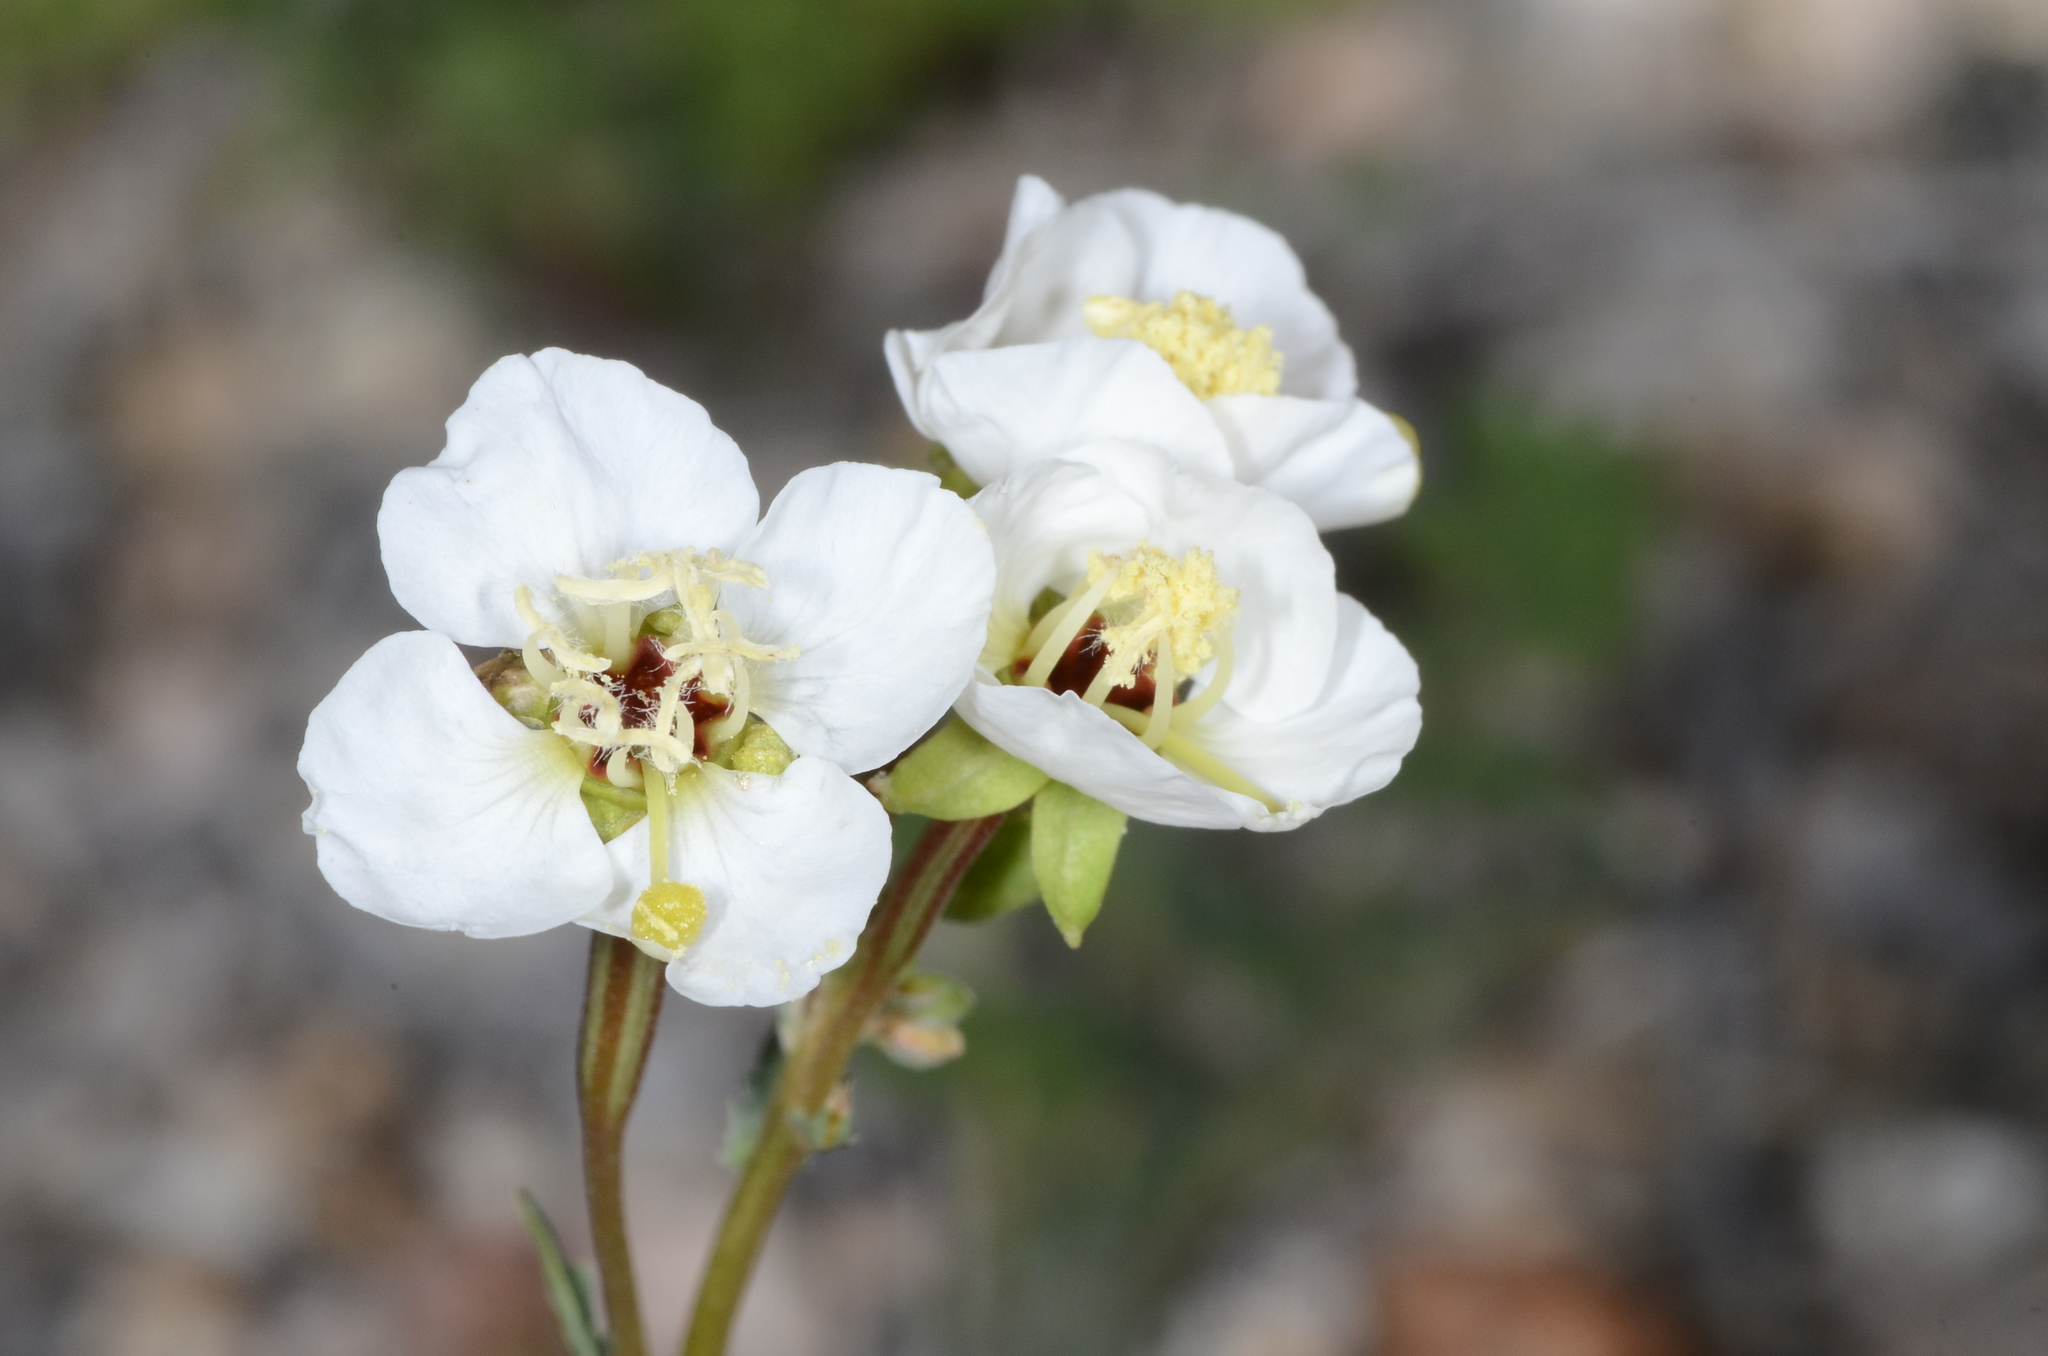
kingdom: Plantae
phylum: Tracheophyta
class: Magnoliopsida
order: Myrtales
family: Onagraceae
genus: Chylismia
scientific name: Chylismia claviformis
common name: Browneyes
